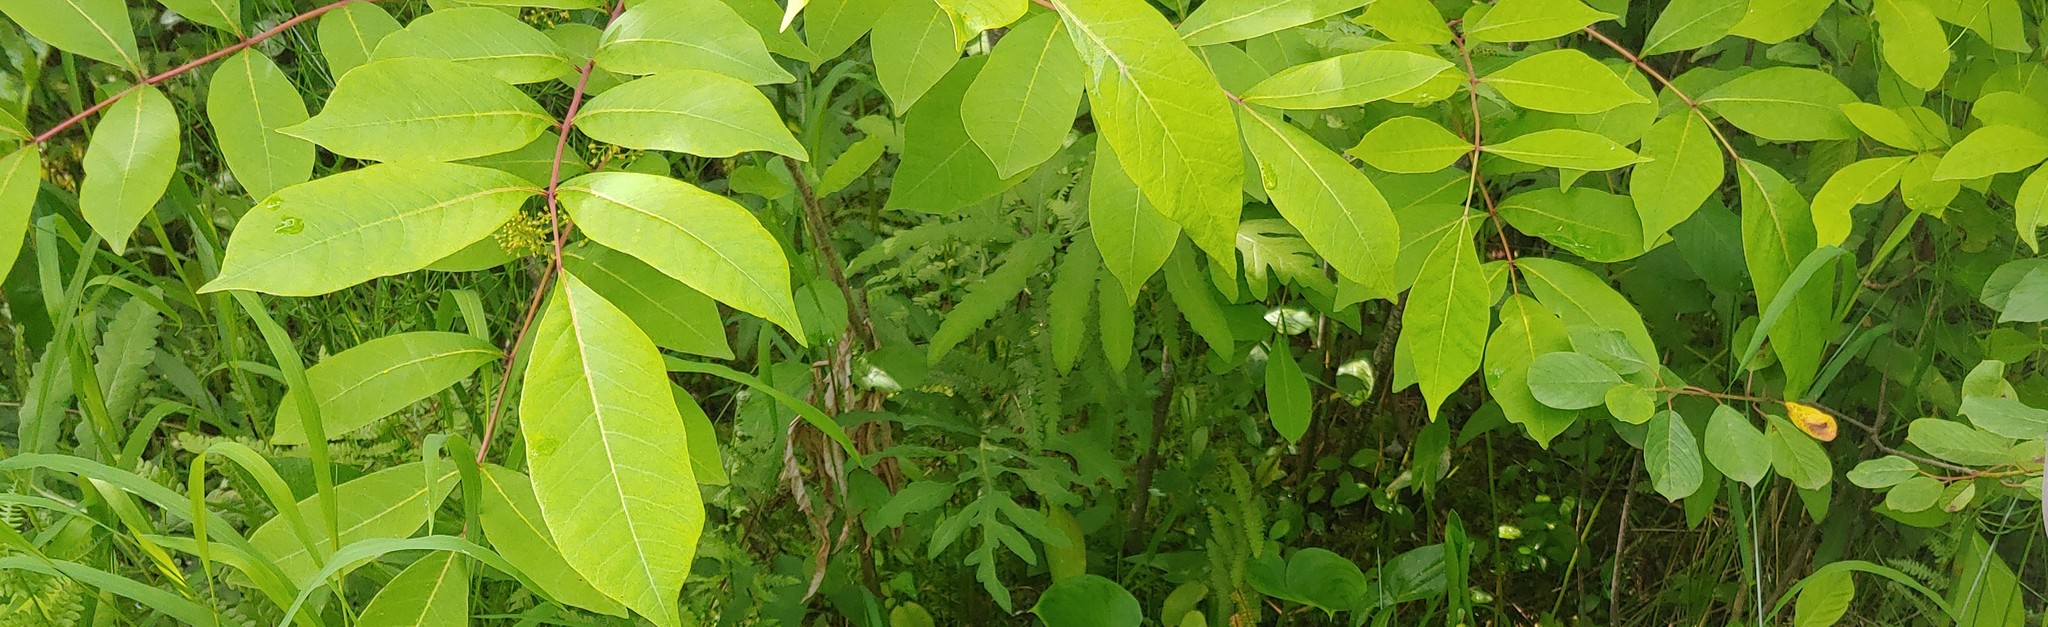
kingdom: Plantae
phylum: Tracheophyta
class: Magnoliopsida
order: Sapindales
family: Anacardiaceae
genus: Toxicodendron
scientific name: Toxicodendron vernix
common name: Poison sumac
